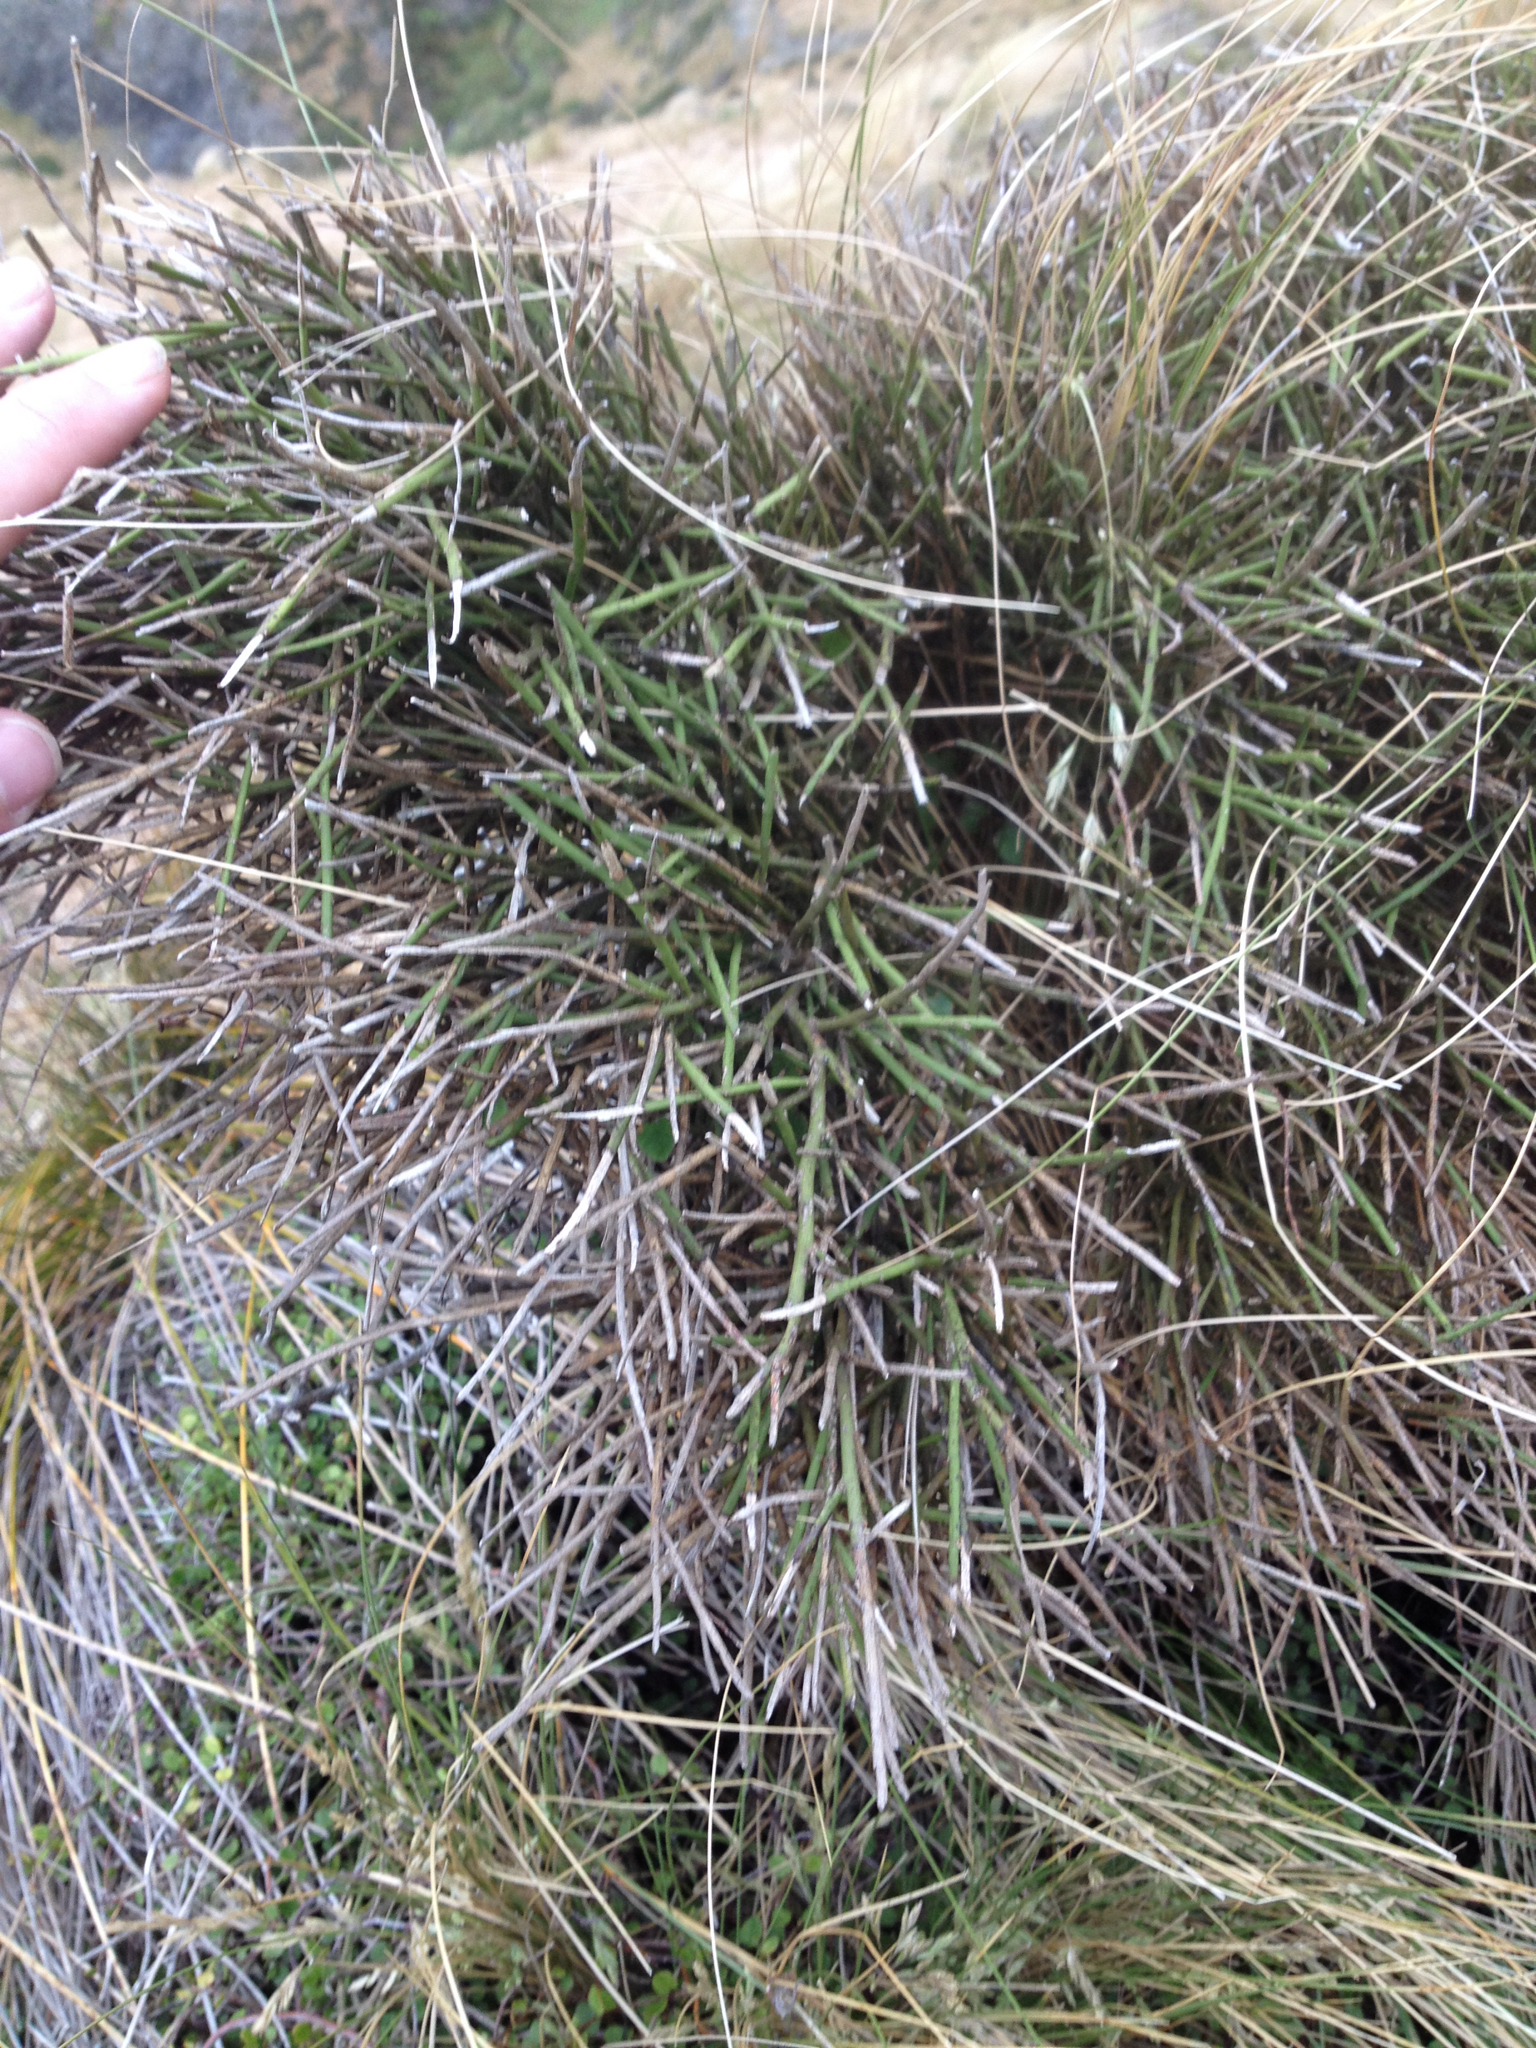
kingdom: Plantae
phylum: Tracheophyta
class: Magnoliopsida
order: Fabales
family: Fabaceae
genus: Carmichaelia
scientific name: Carmichaelia australis
